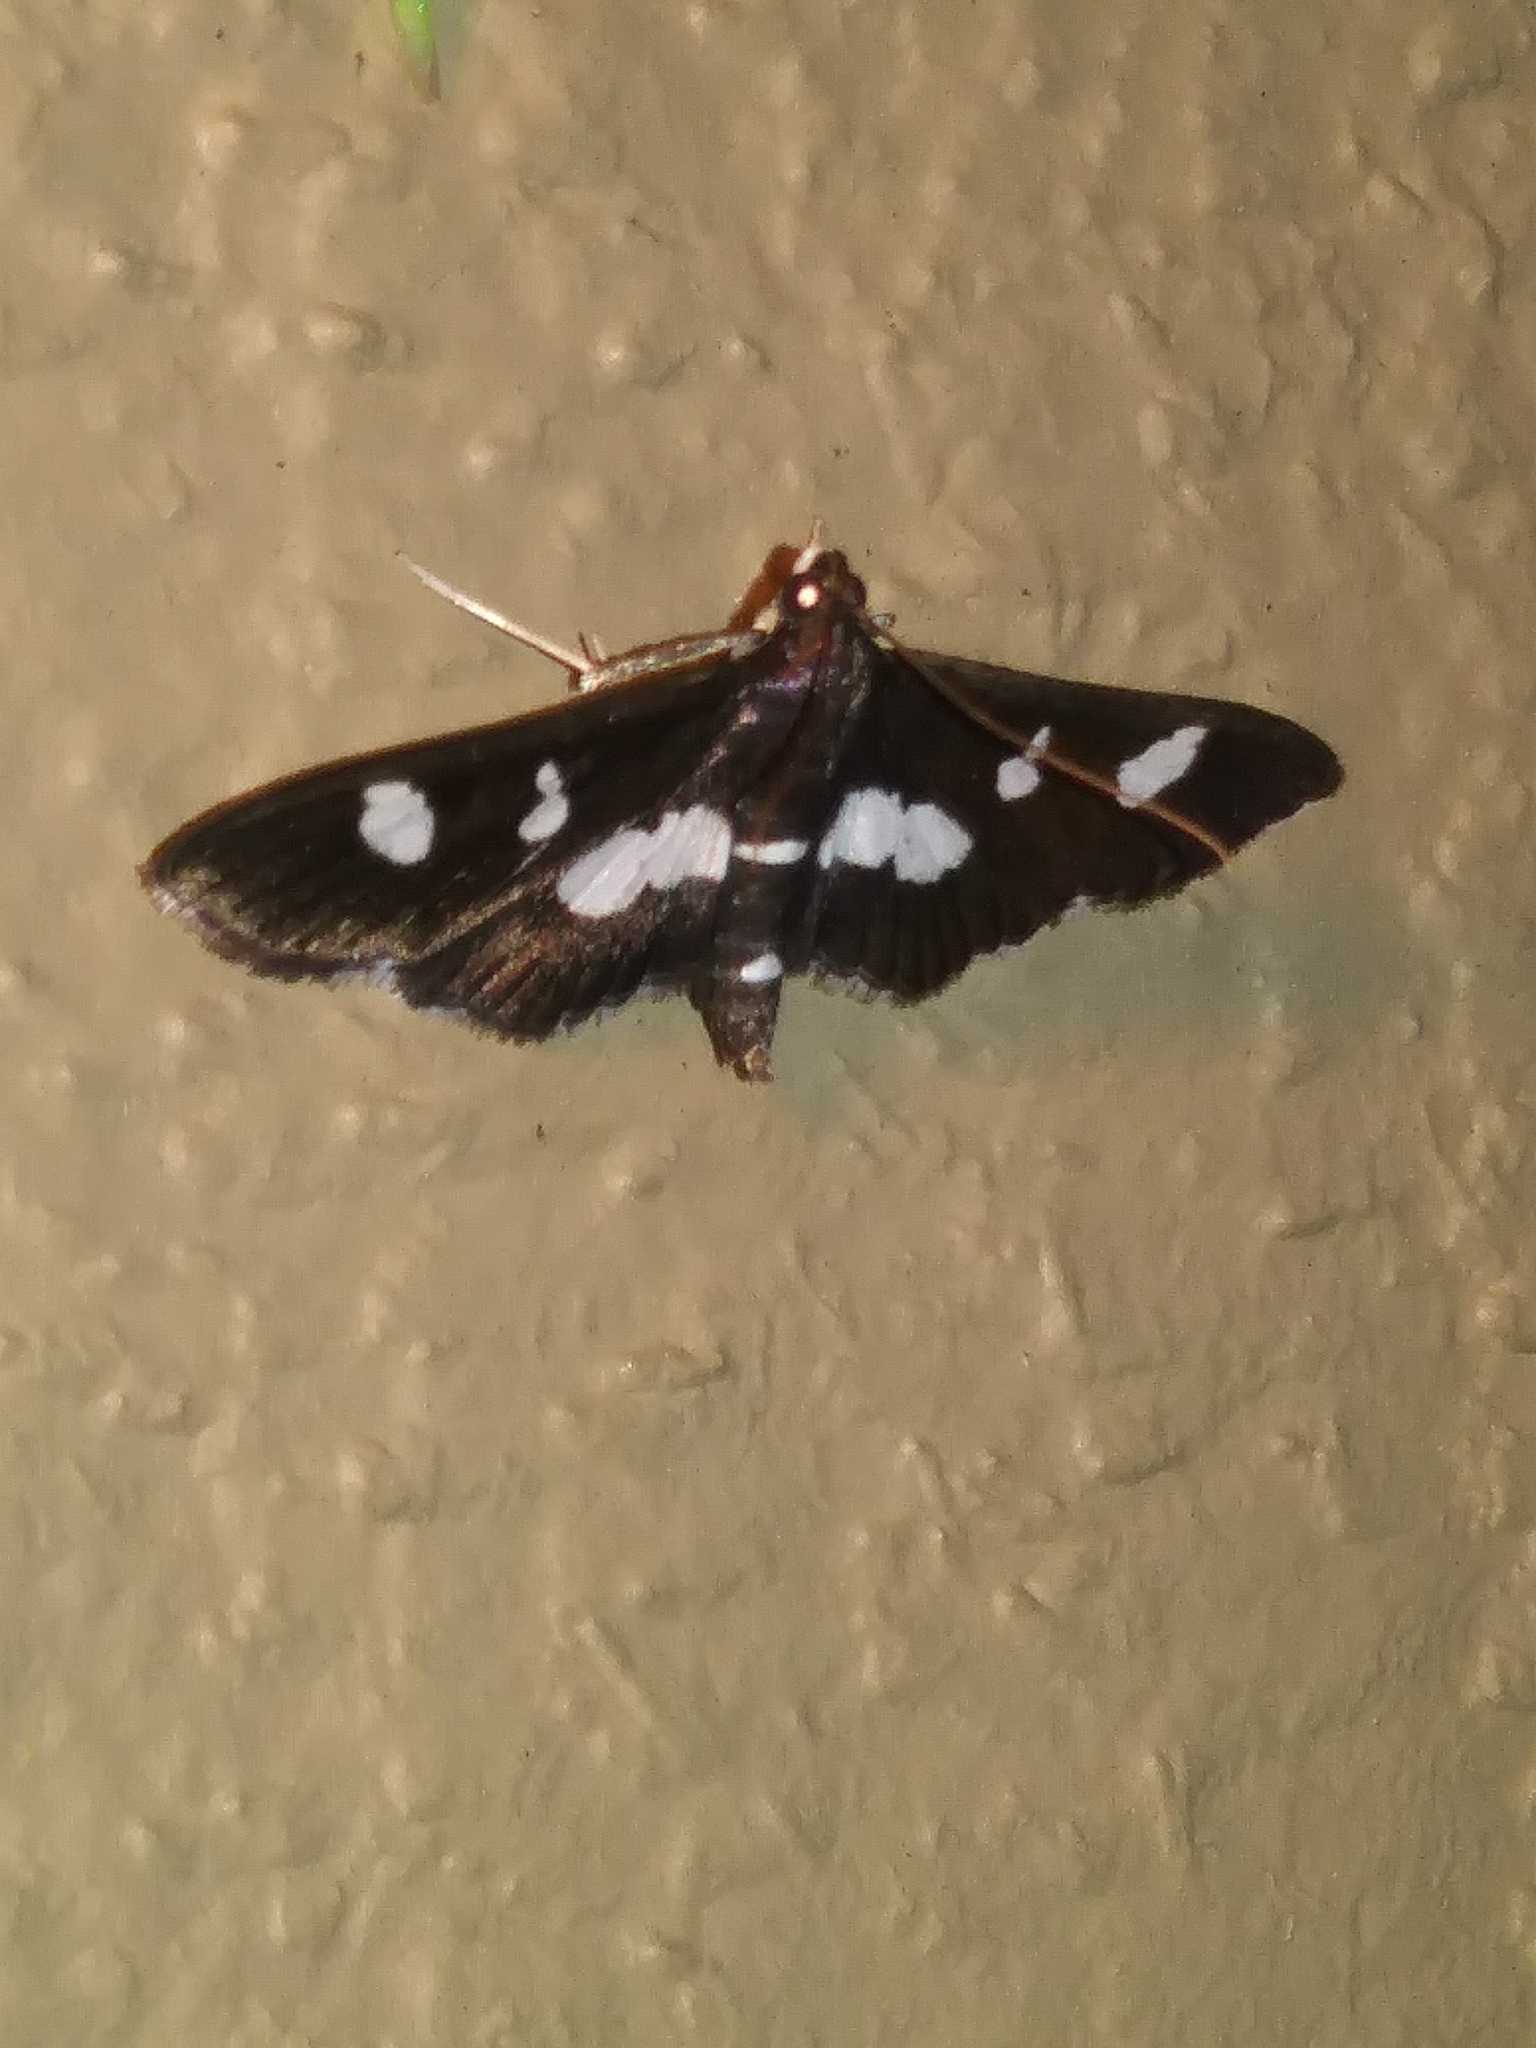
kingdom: Animalia
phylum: Arthropoda
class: Insecta
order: Lepidoptera
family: Crambidae
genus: Desmia
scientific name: Desmia funeralis
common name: Grape leaf folder moth
